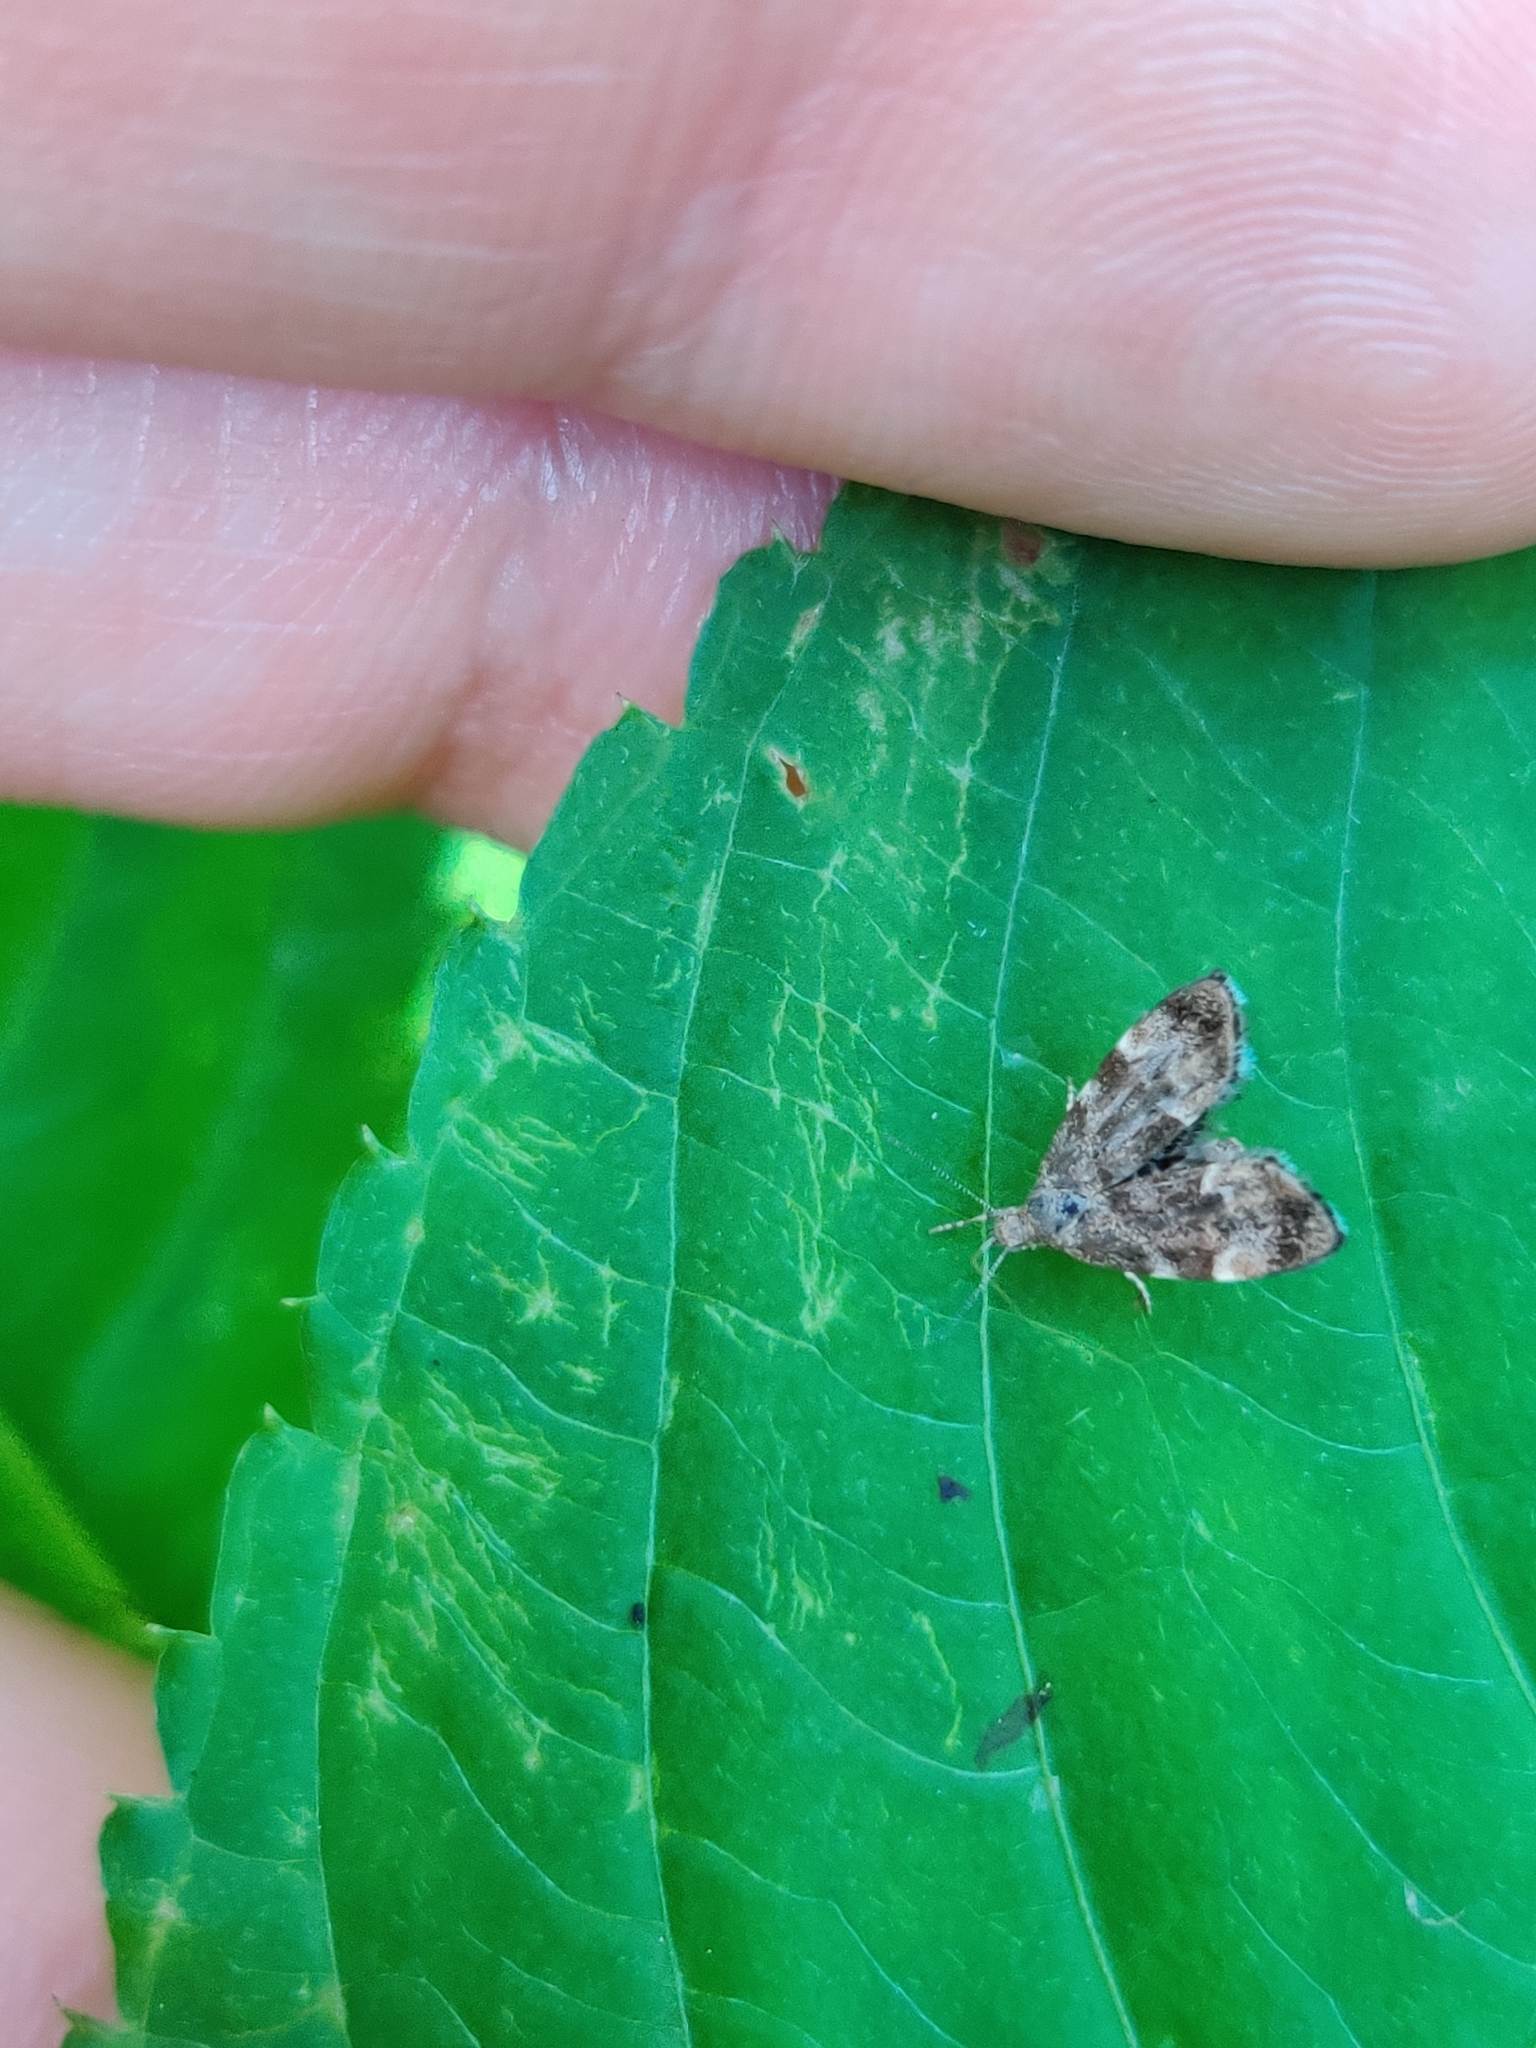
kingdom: Animalia
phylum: Arthropoda
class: Insecta
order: Lepidoptera
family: Choreutidae
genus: Anthophila
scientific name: Anthophila fabriciana
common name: Nettle-tap
